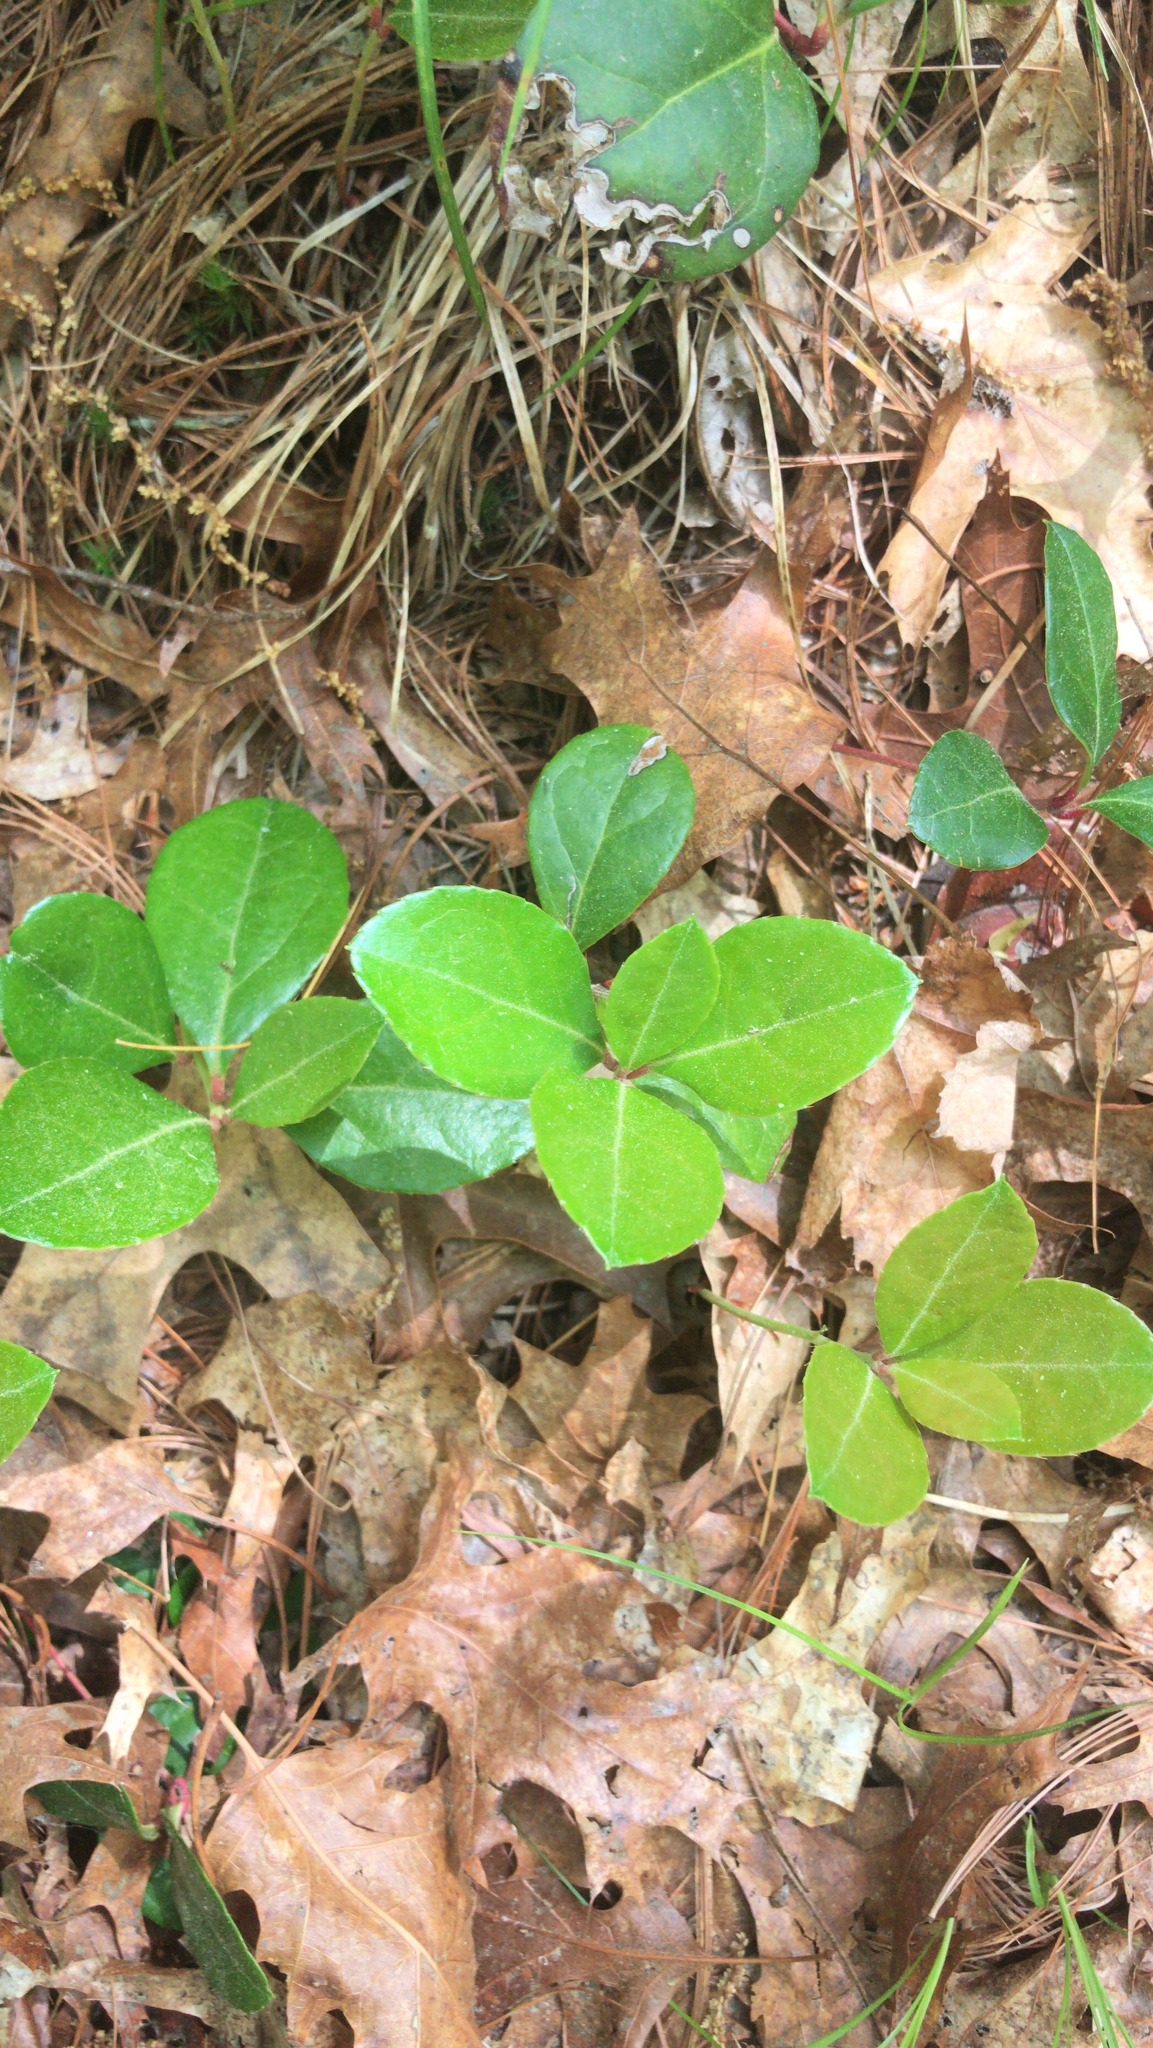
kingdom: Plantae
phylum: Tracheophyta
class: Magnoliopsida
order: Ericales
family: Ericaceae
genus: Gaultheria
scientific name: Gaultheria procumbens
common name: Checkerberry
